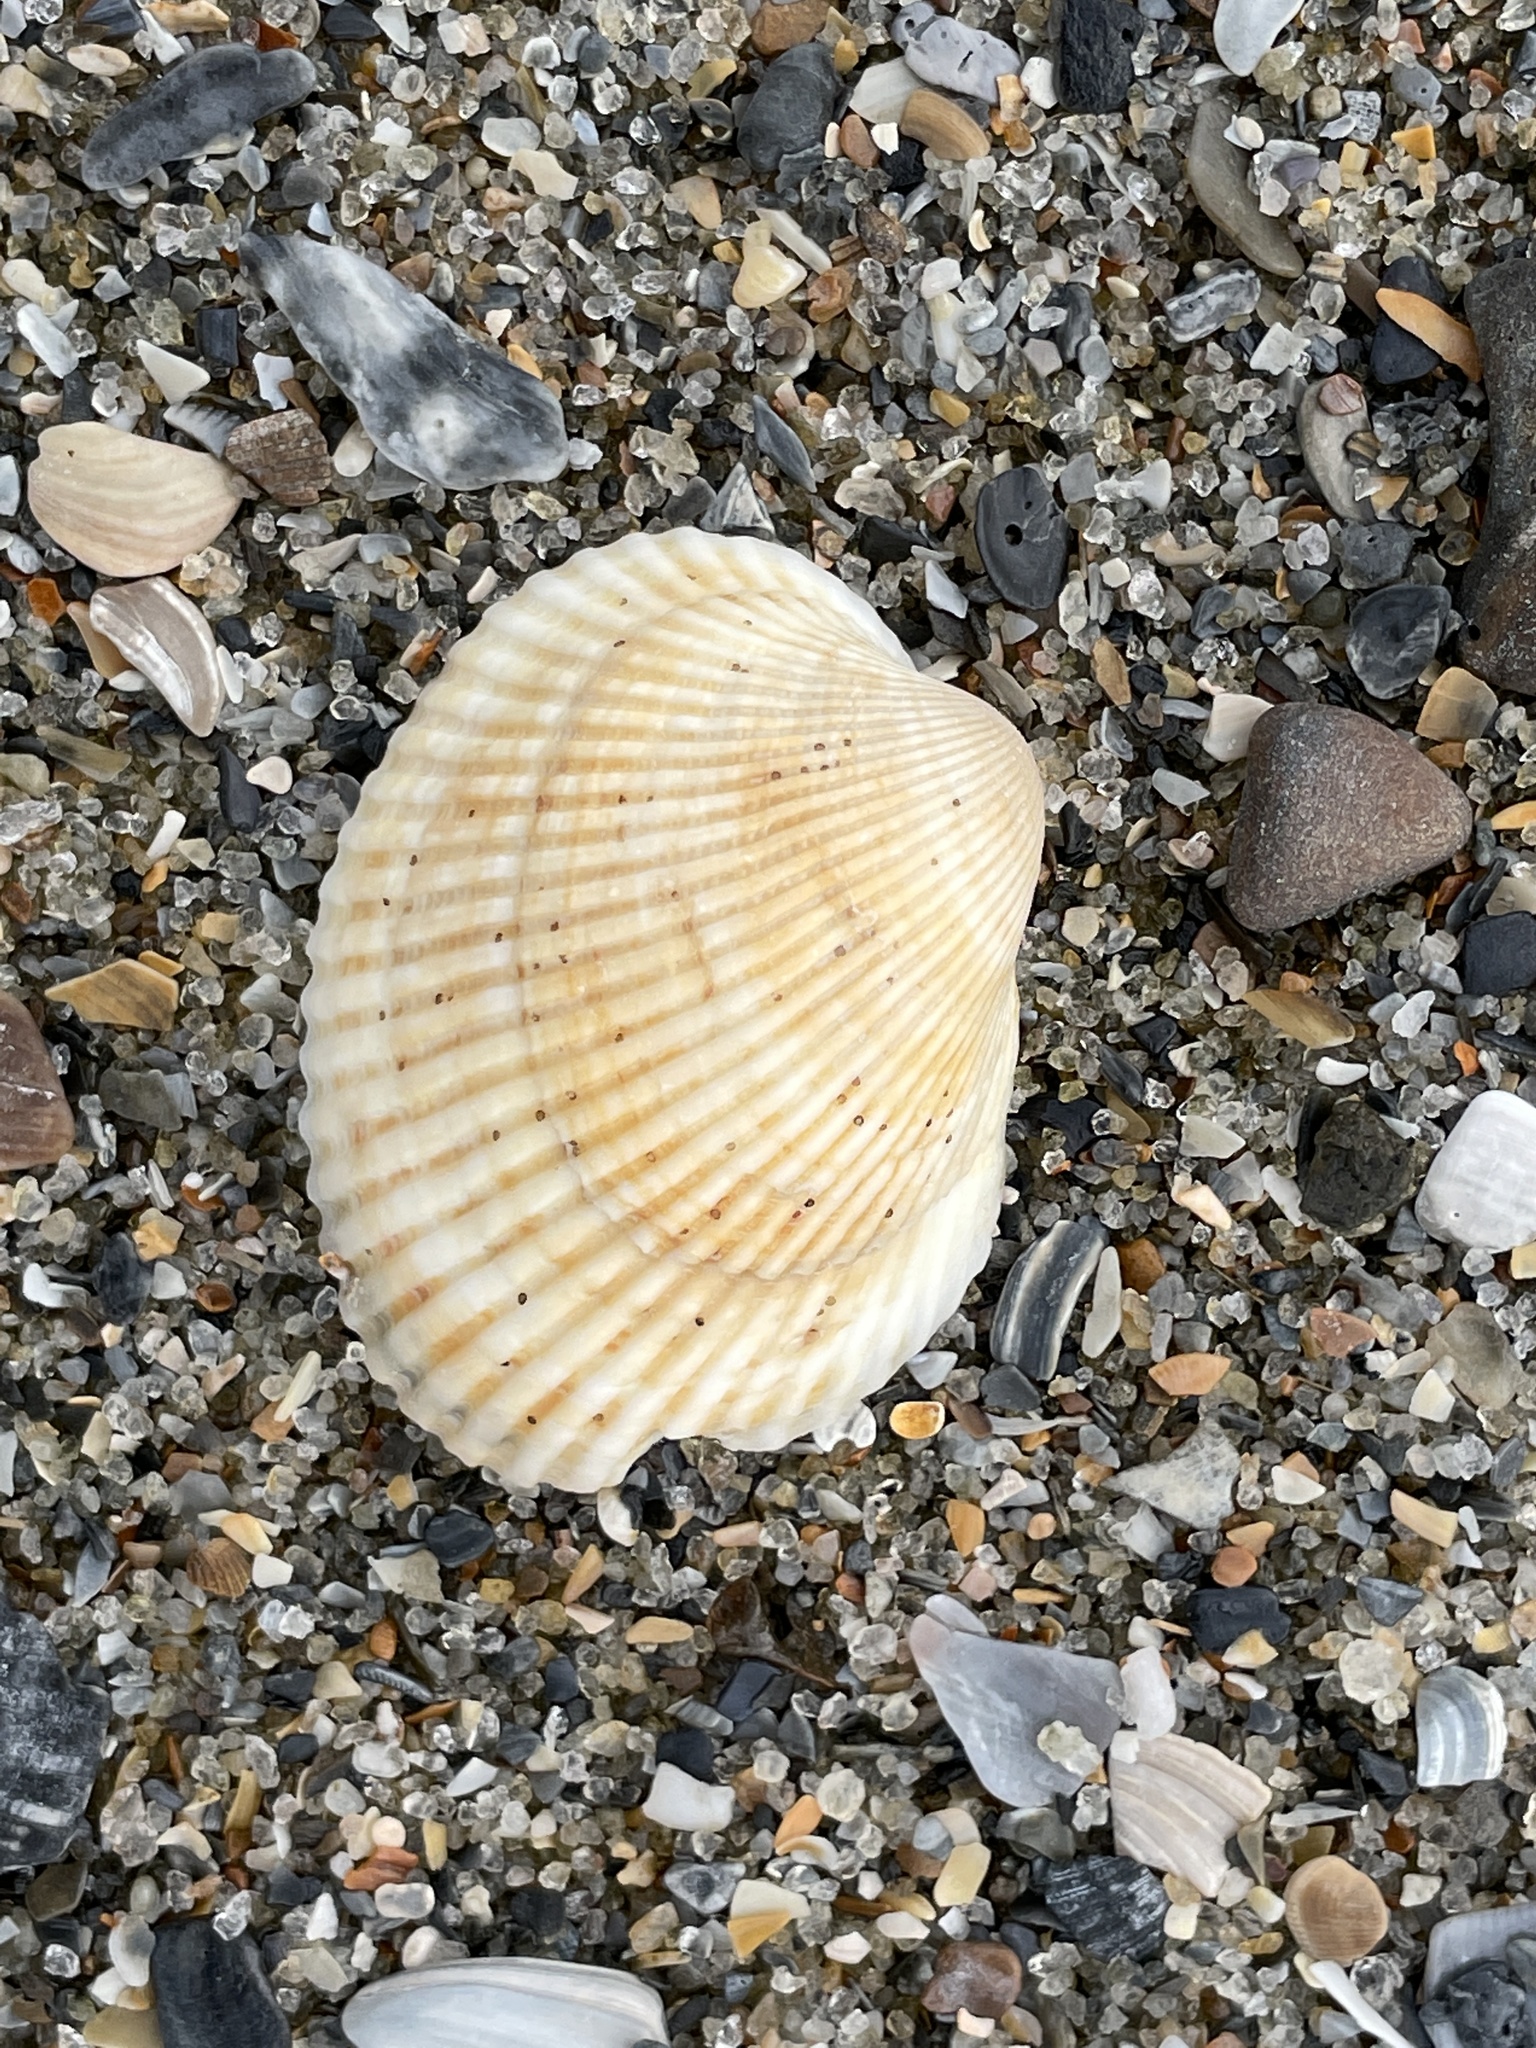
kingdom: Animalia
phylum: Mollusca
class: Bivalvia
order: Arcida
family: Arcidae
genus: Lunarca
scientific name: Lunarca ovalis
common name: Blood ark
